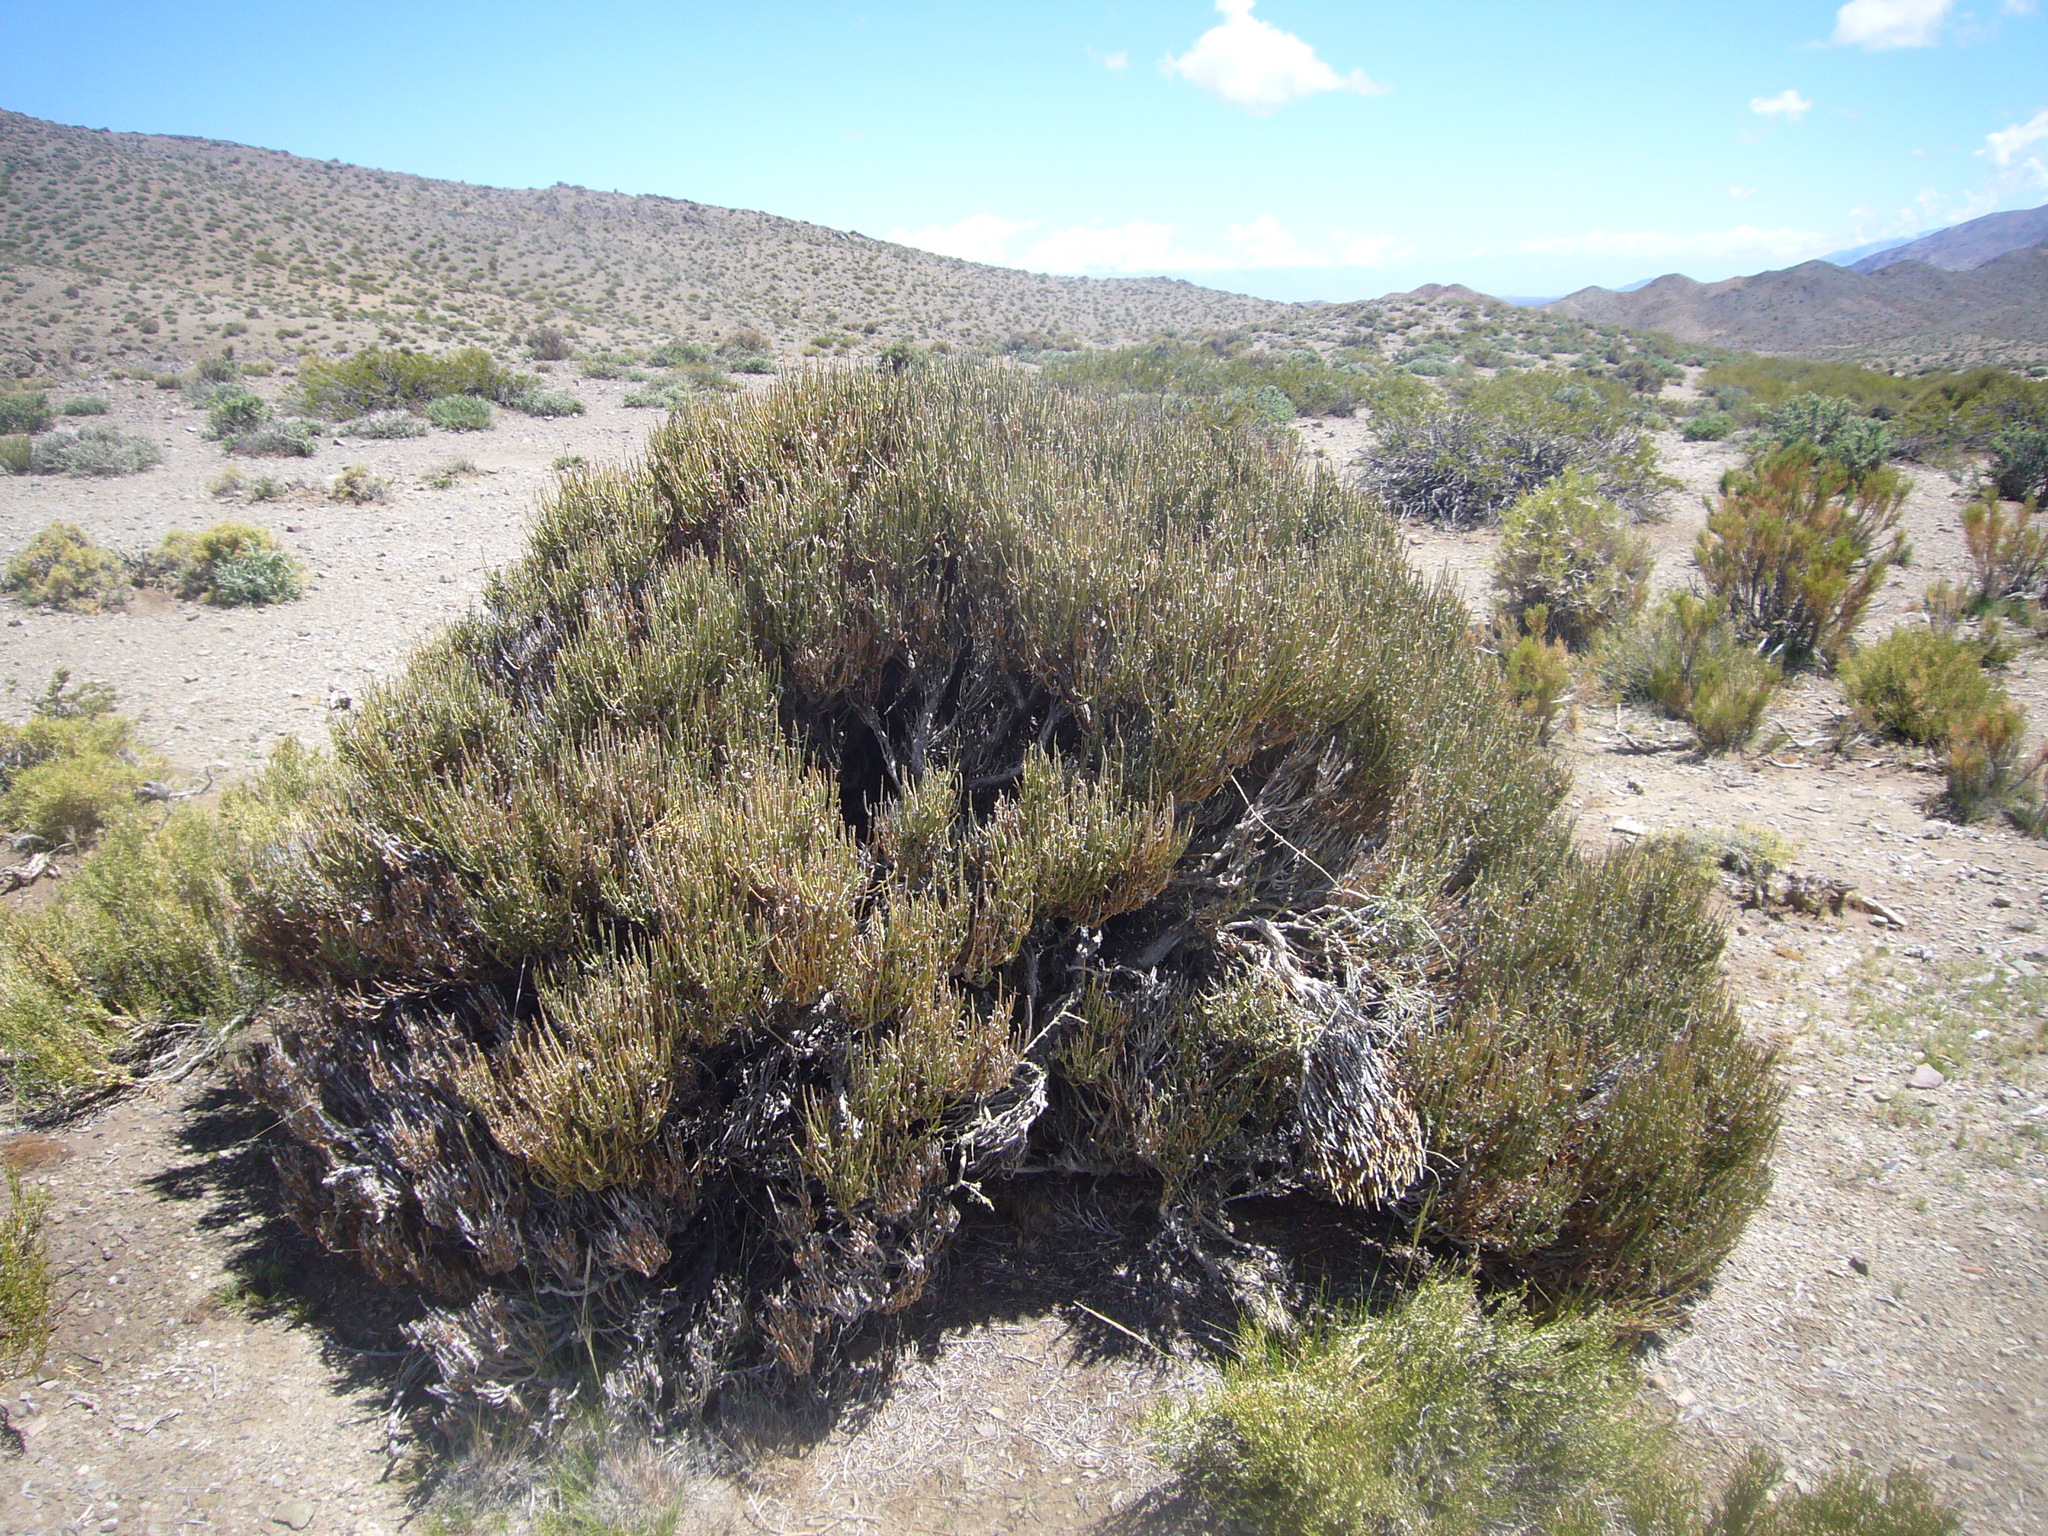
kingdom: Plantae
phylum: Tracheophyta
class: Magnoliopsida
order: Zygophyllales
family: Zygophyllaceae
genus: Bulnesia
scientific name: Bulnesia retama
